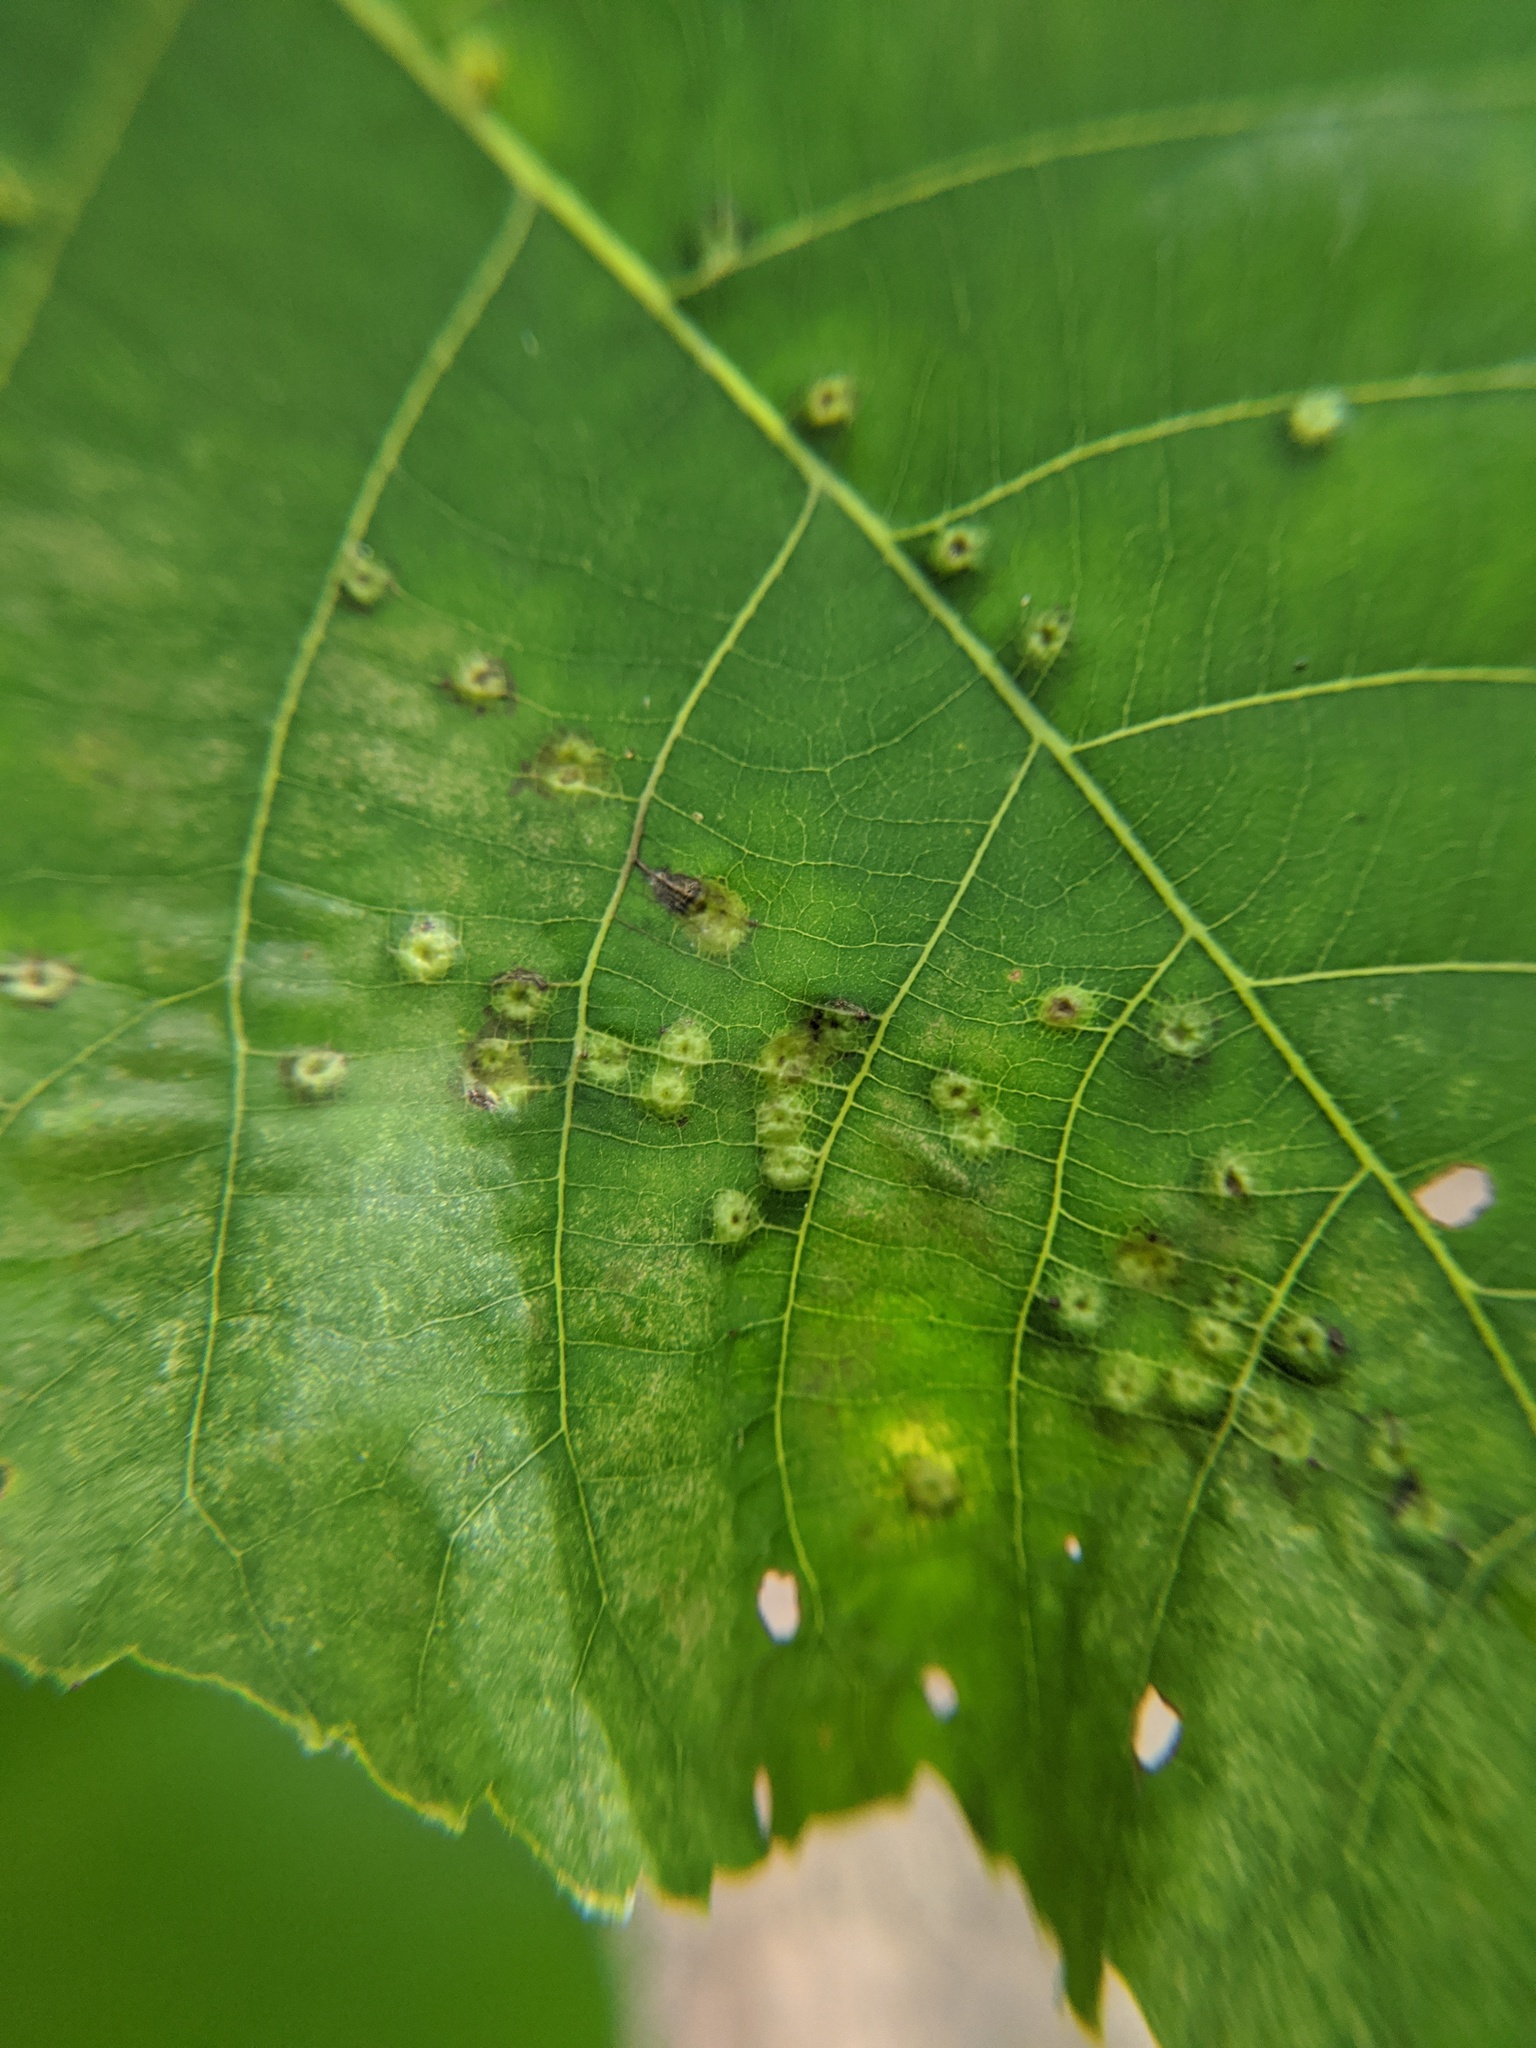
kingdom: Animalia
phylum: Arthropoda
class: Insecta
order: Diptera
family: Cecidomyiidae
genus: Caryomyia
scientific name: Caryomyia caryae
